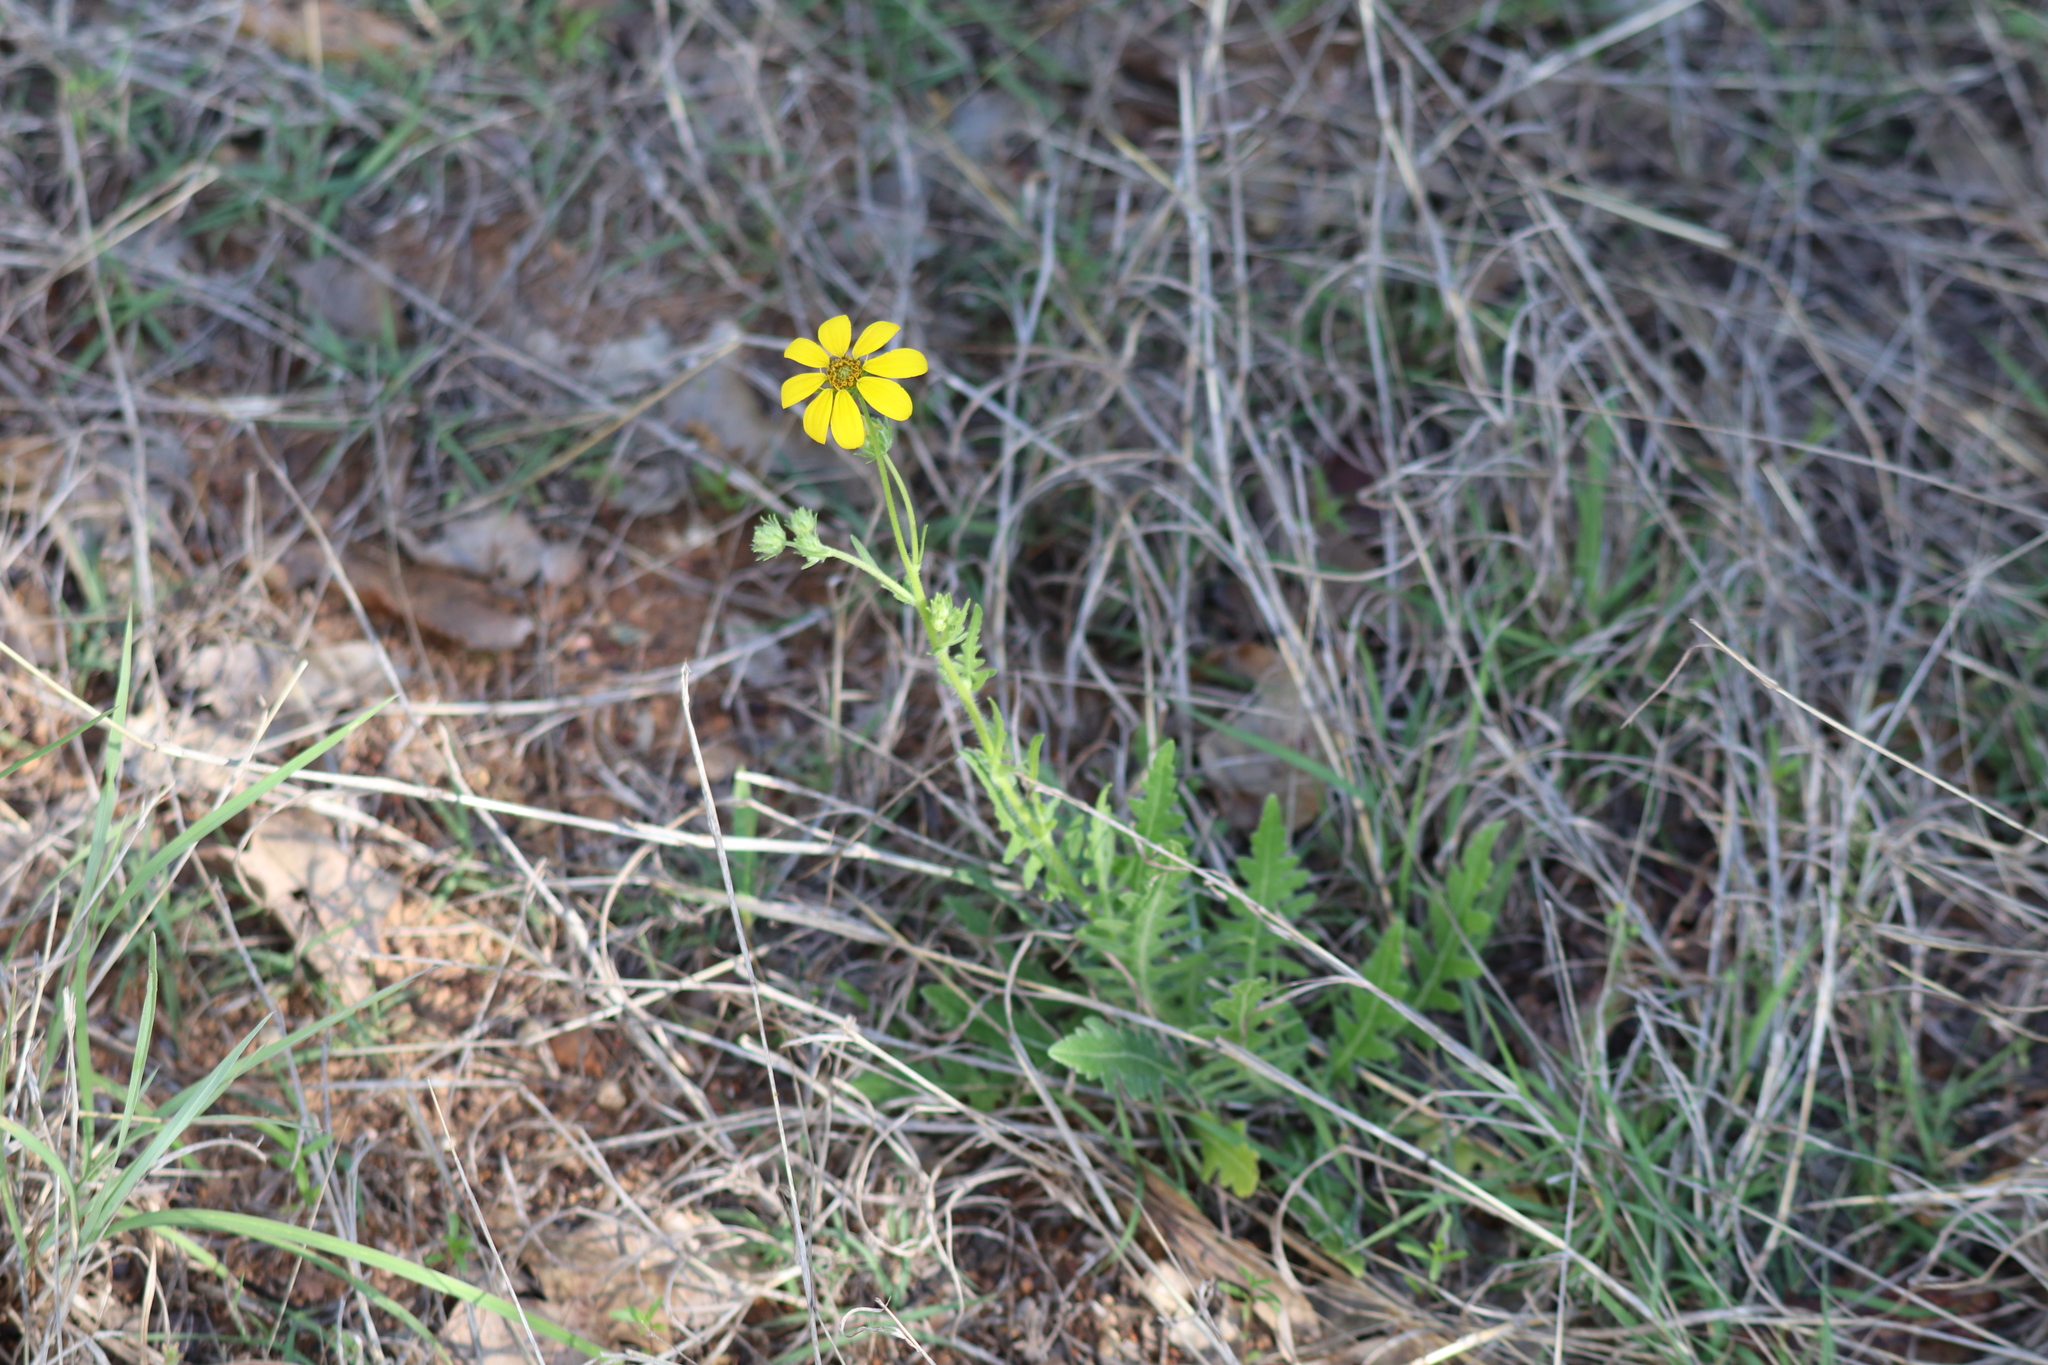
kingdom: Plantae
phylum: Tracheophyta
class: Magnoliopsida
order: Asterales
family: Asteraceae
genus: Engelmannia
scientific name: Engelmannia peristenia
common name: Engelmann's daisy
